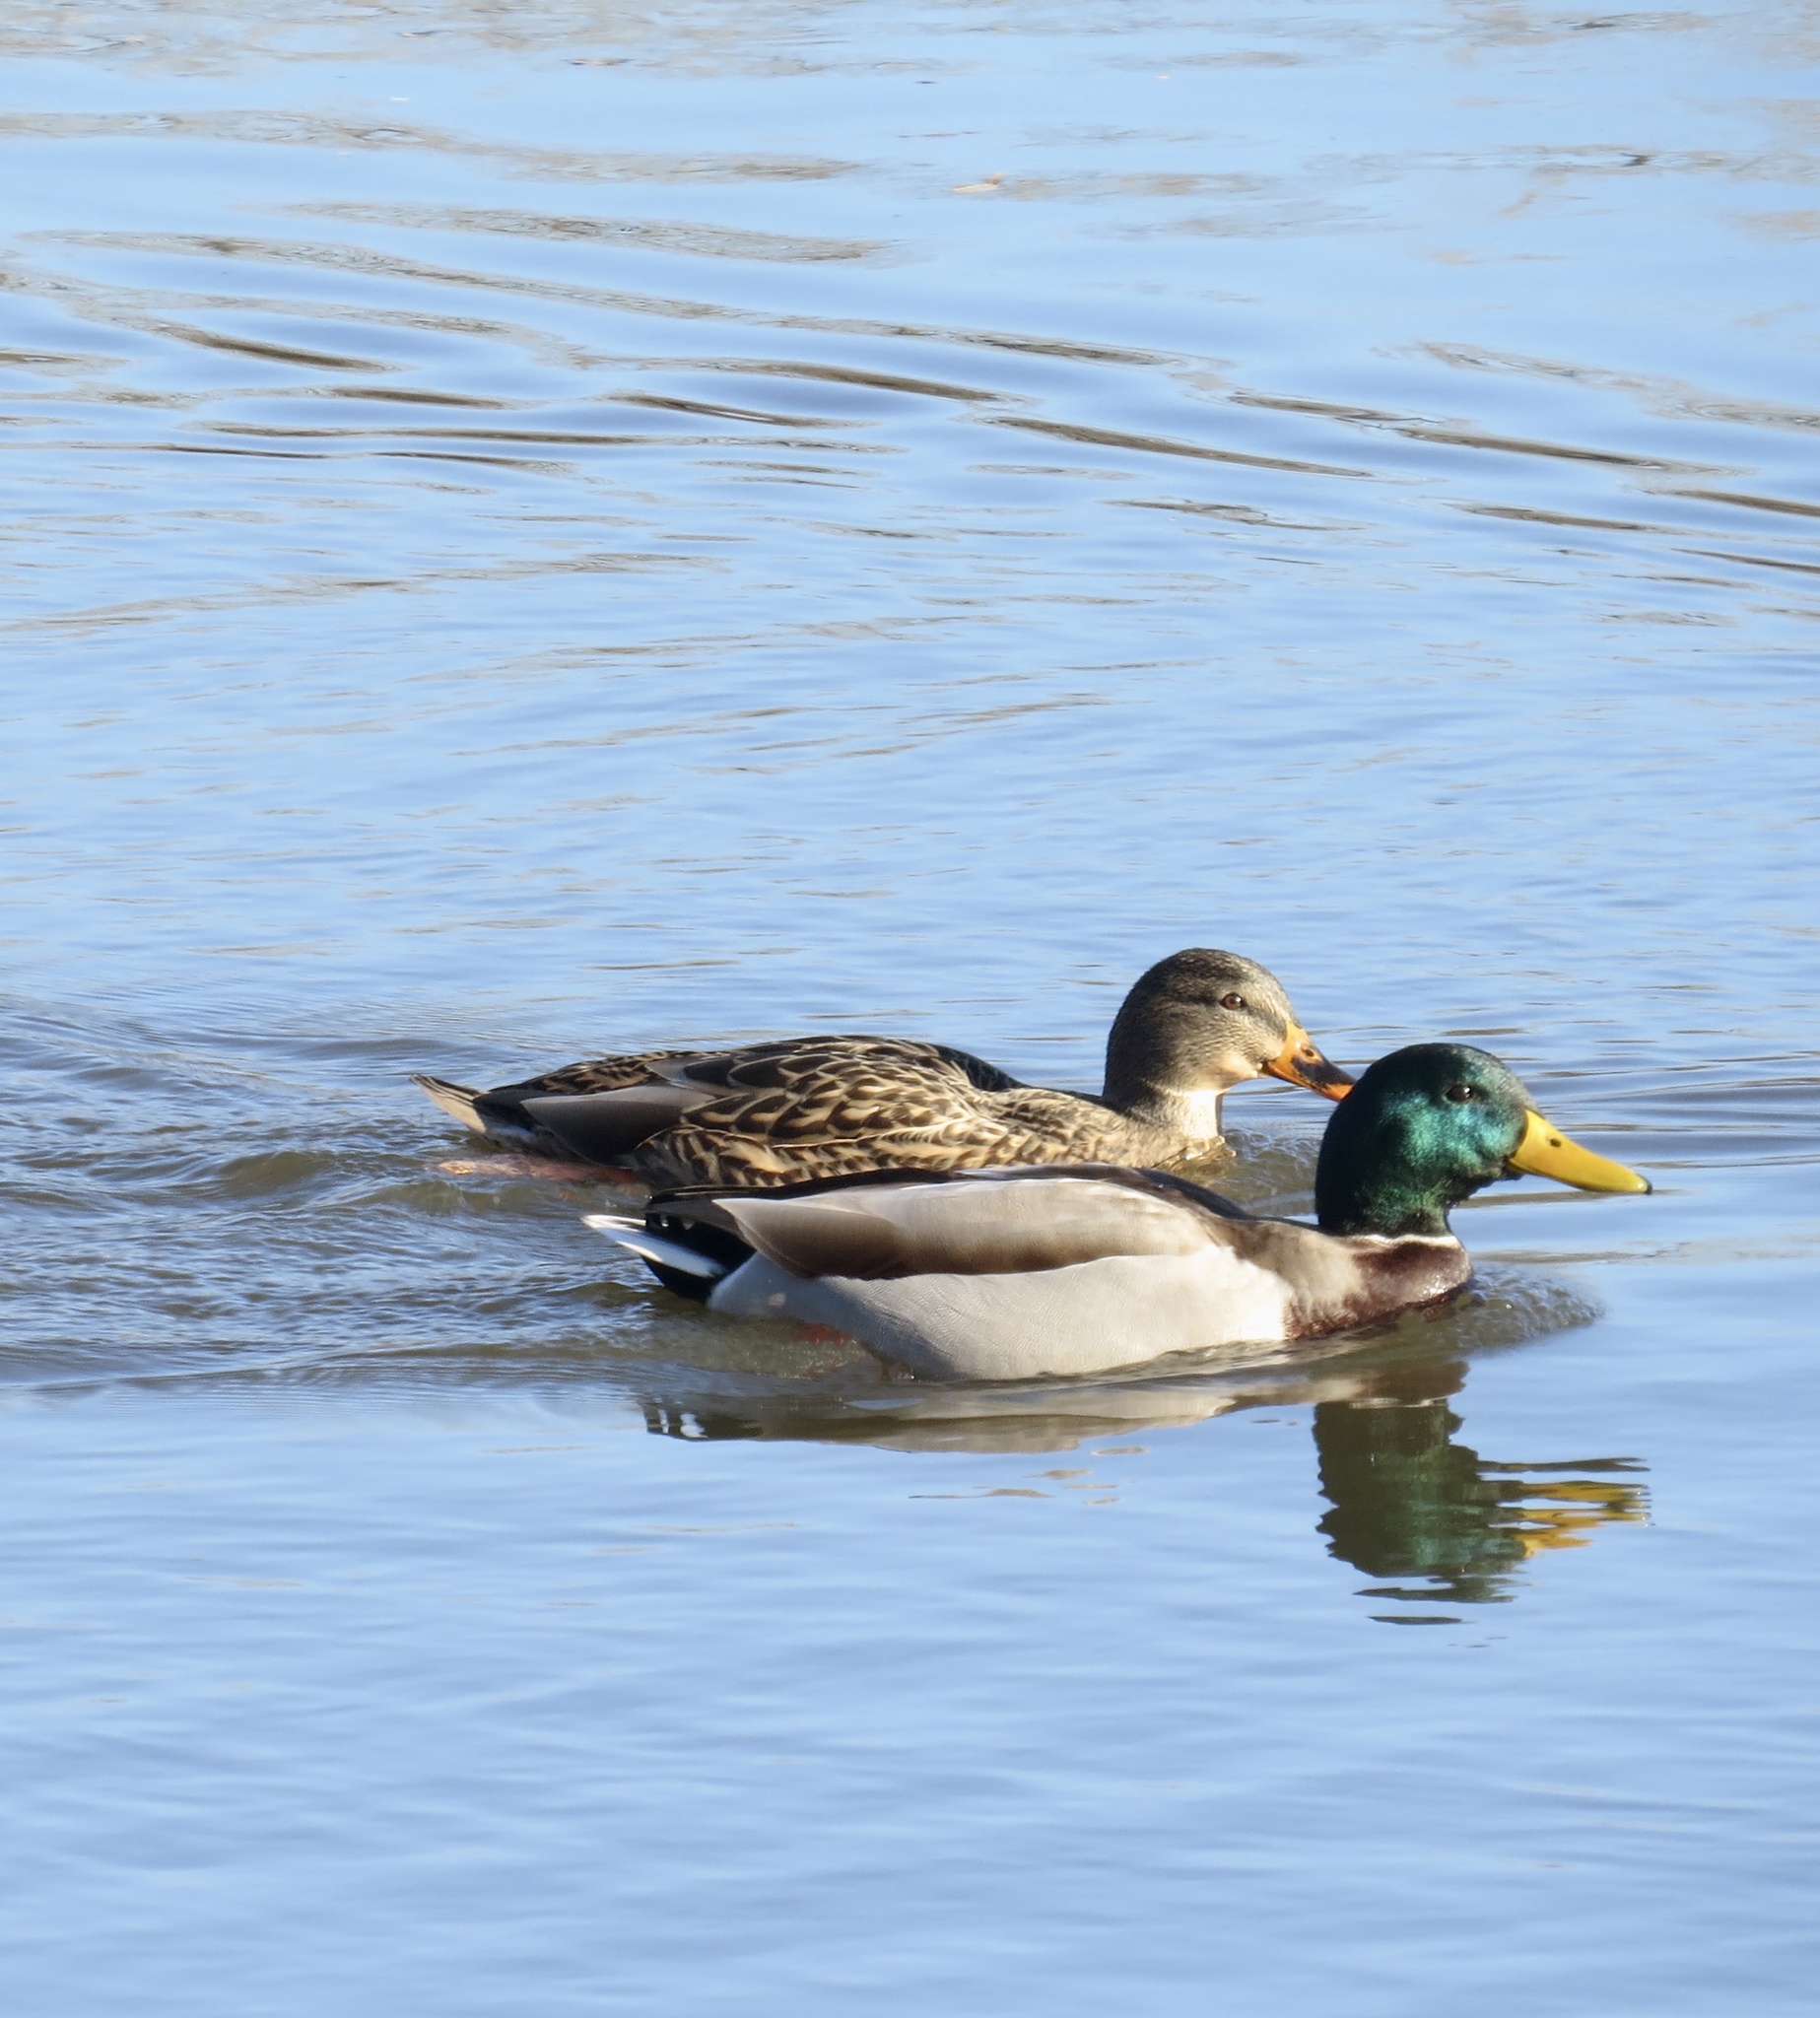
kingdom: Animalia
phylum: Chordata
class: Aves
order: Anseriformes
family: Anatidae
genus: Anas
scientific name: Anas platyrhynchos
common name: Mallard
